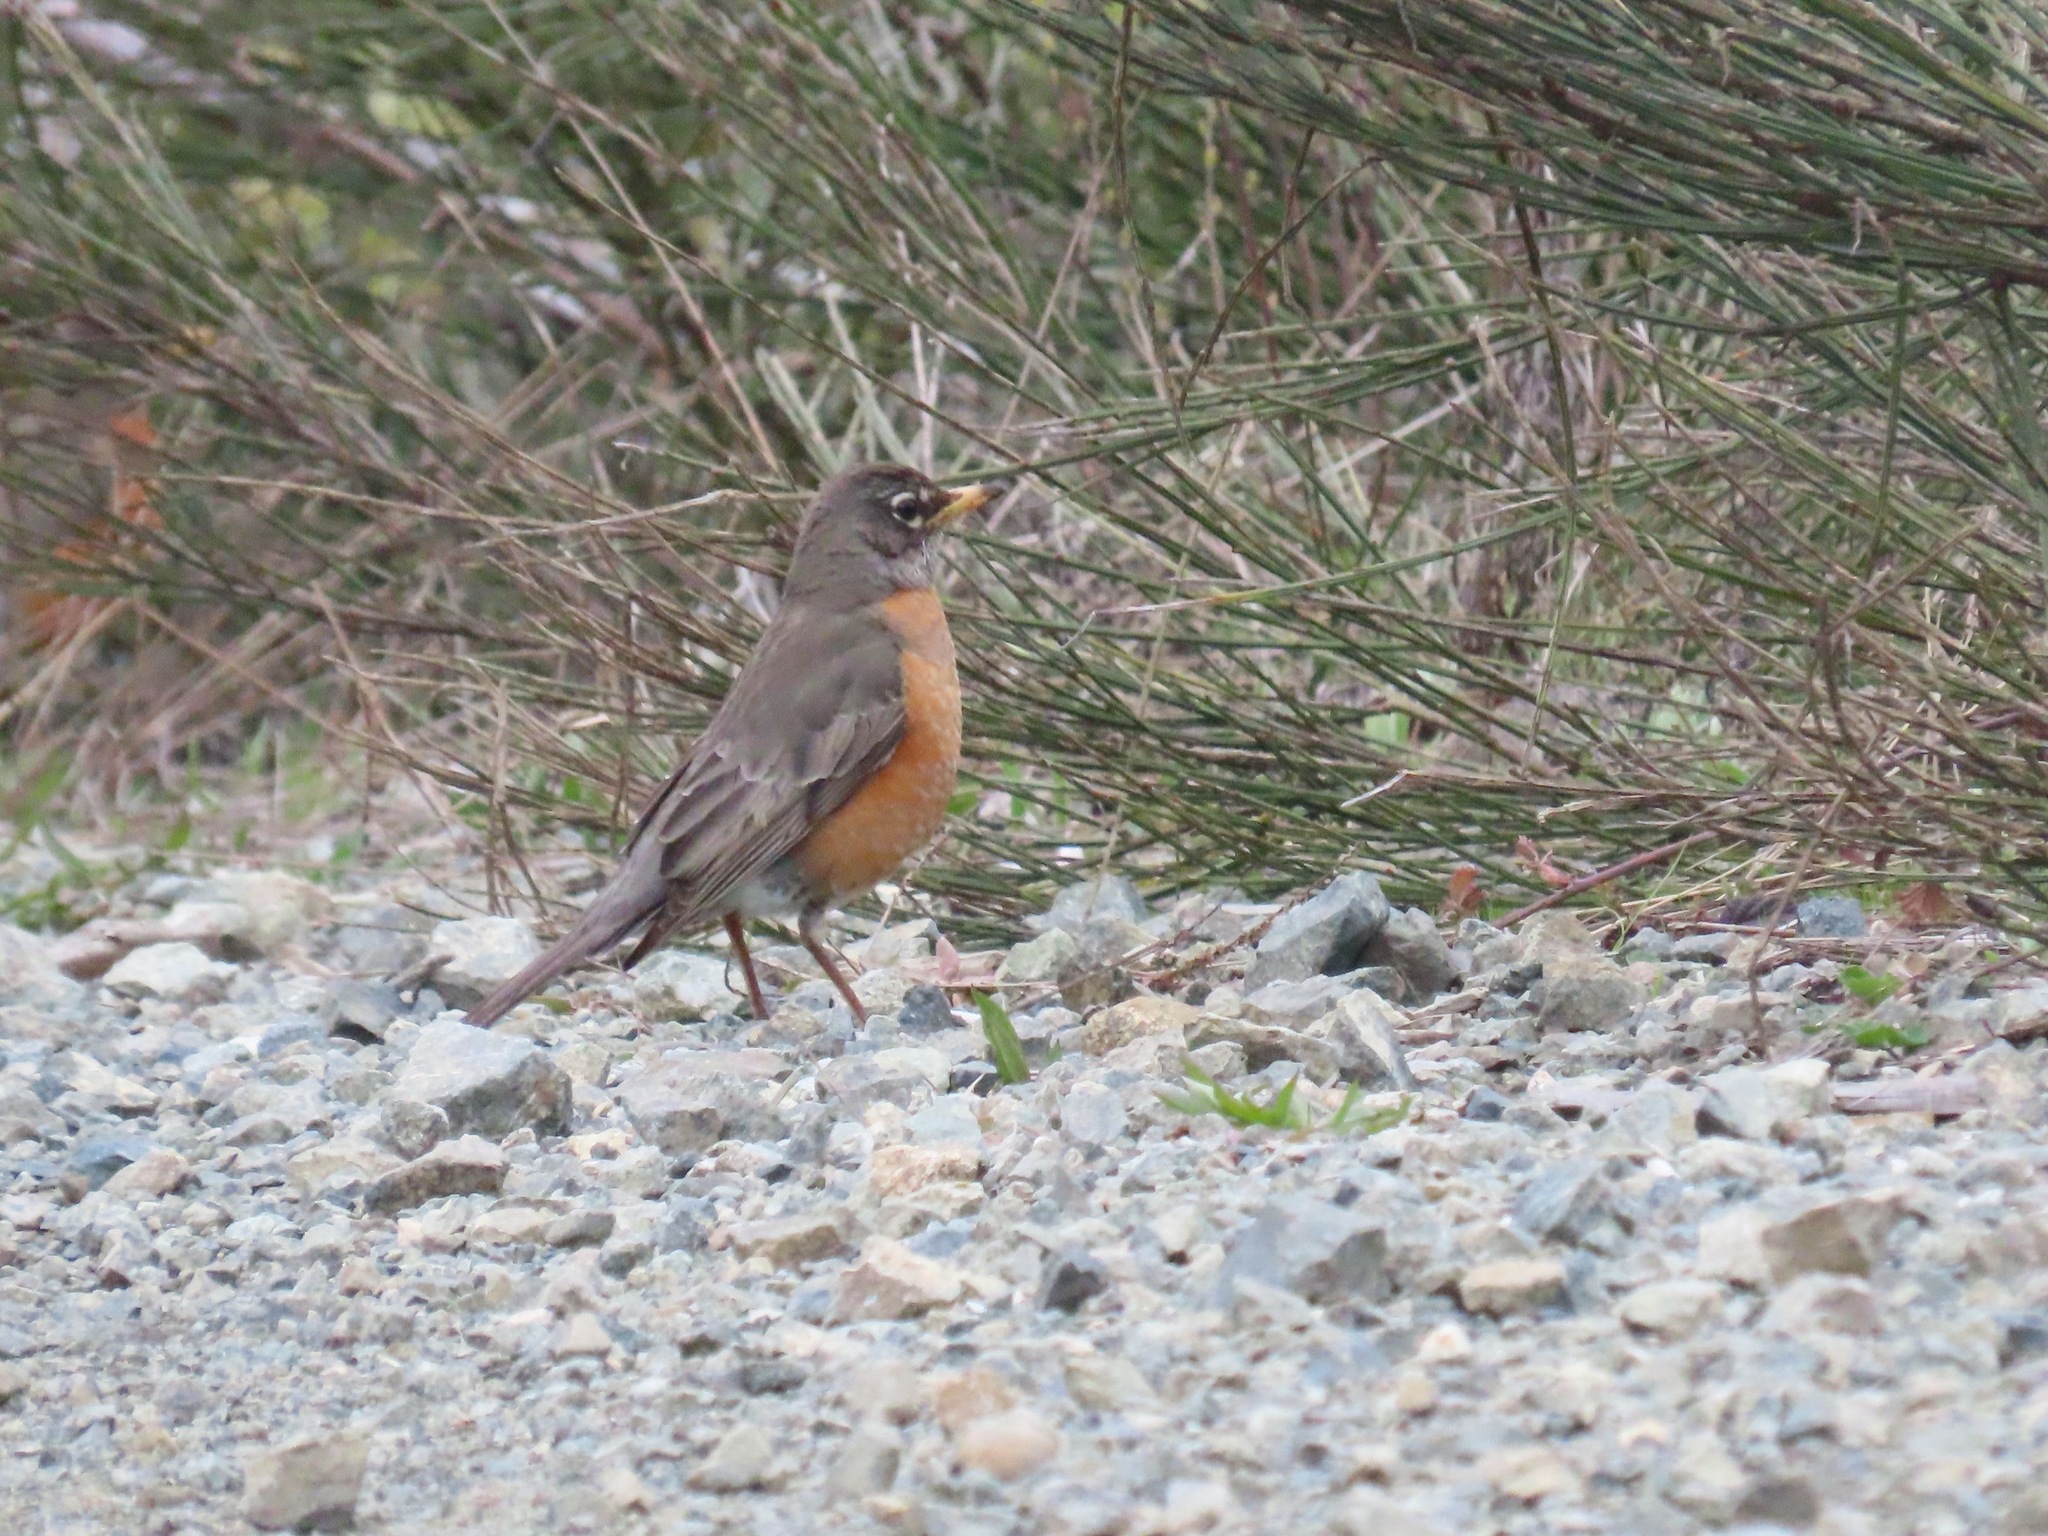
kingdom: Animalia
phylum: Chordata
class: Aves
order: Passeriformes
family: Turdidae
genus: Turdus
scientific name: Turdus migratorius
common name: American robin
